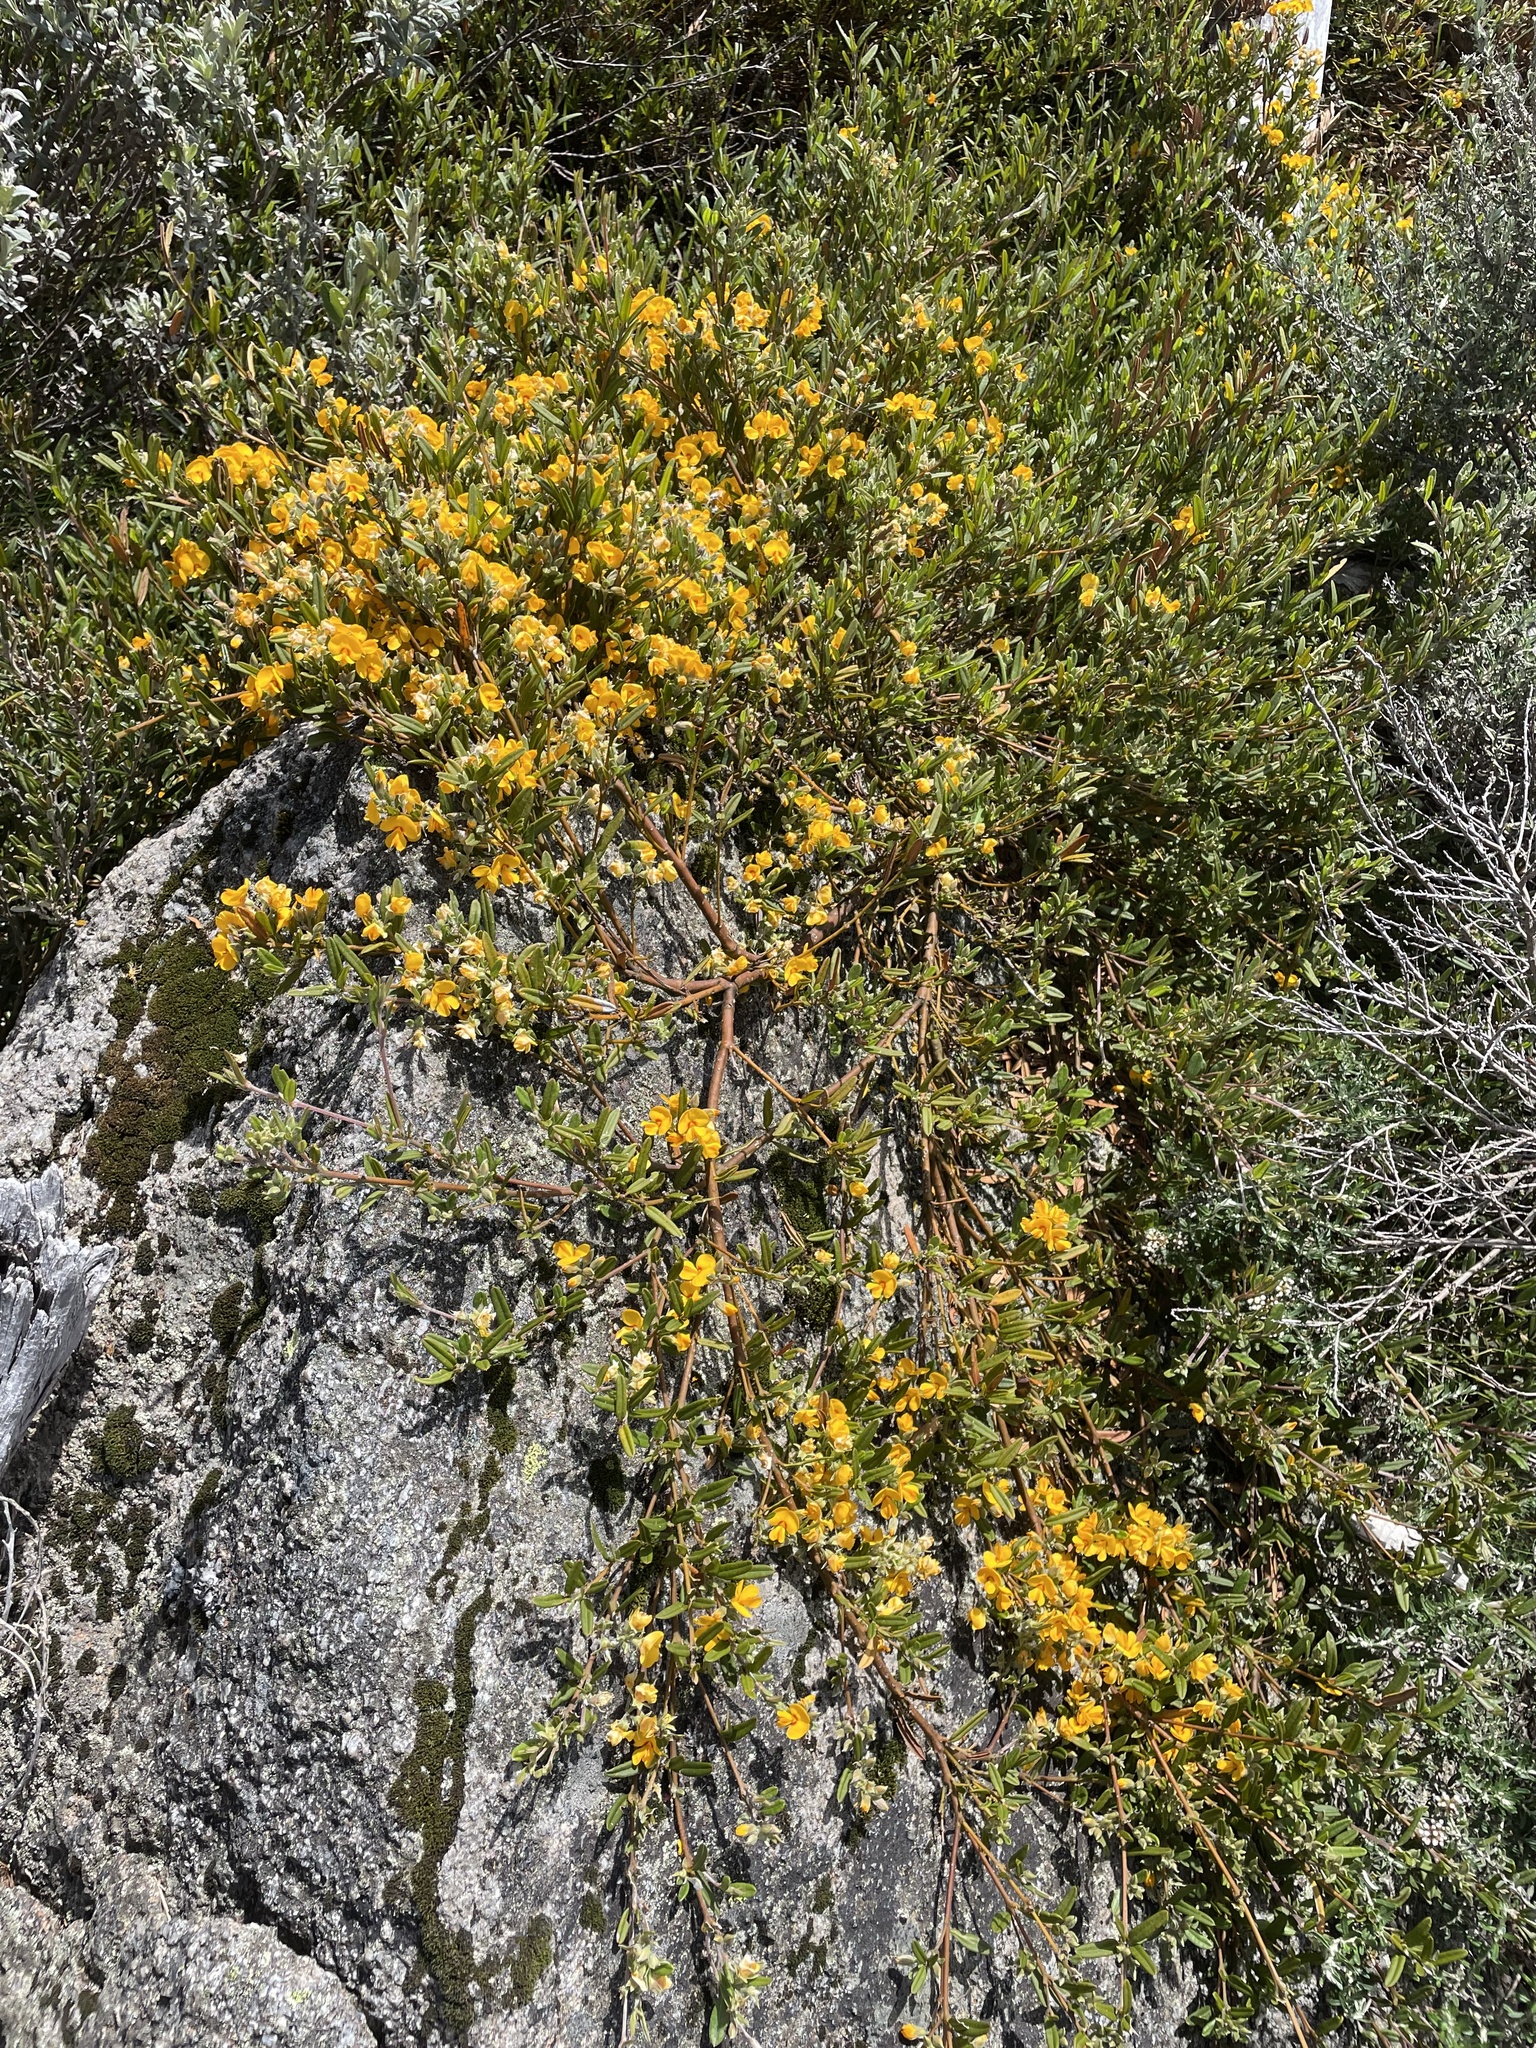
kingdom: Plantae
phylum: Tracheophyta
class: Magnoliopsida
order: Fabales
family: Fabaceae
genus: Podolobium
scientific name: Podolobium alpestre
